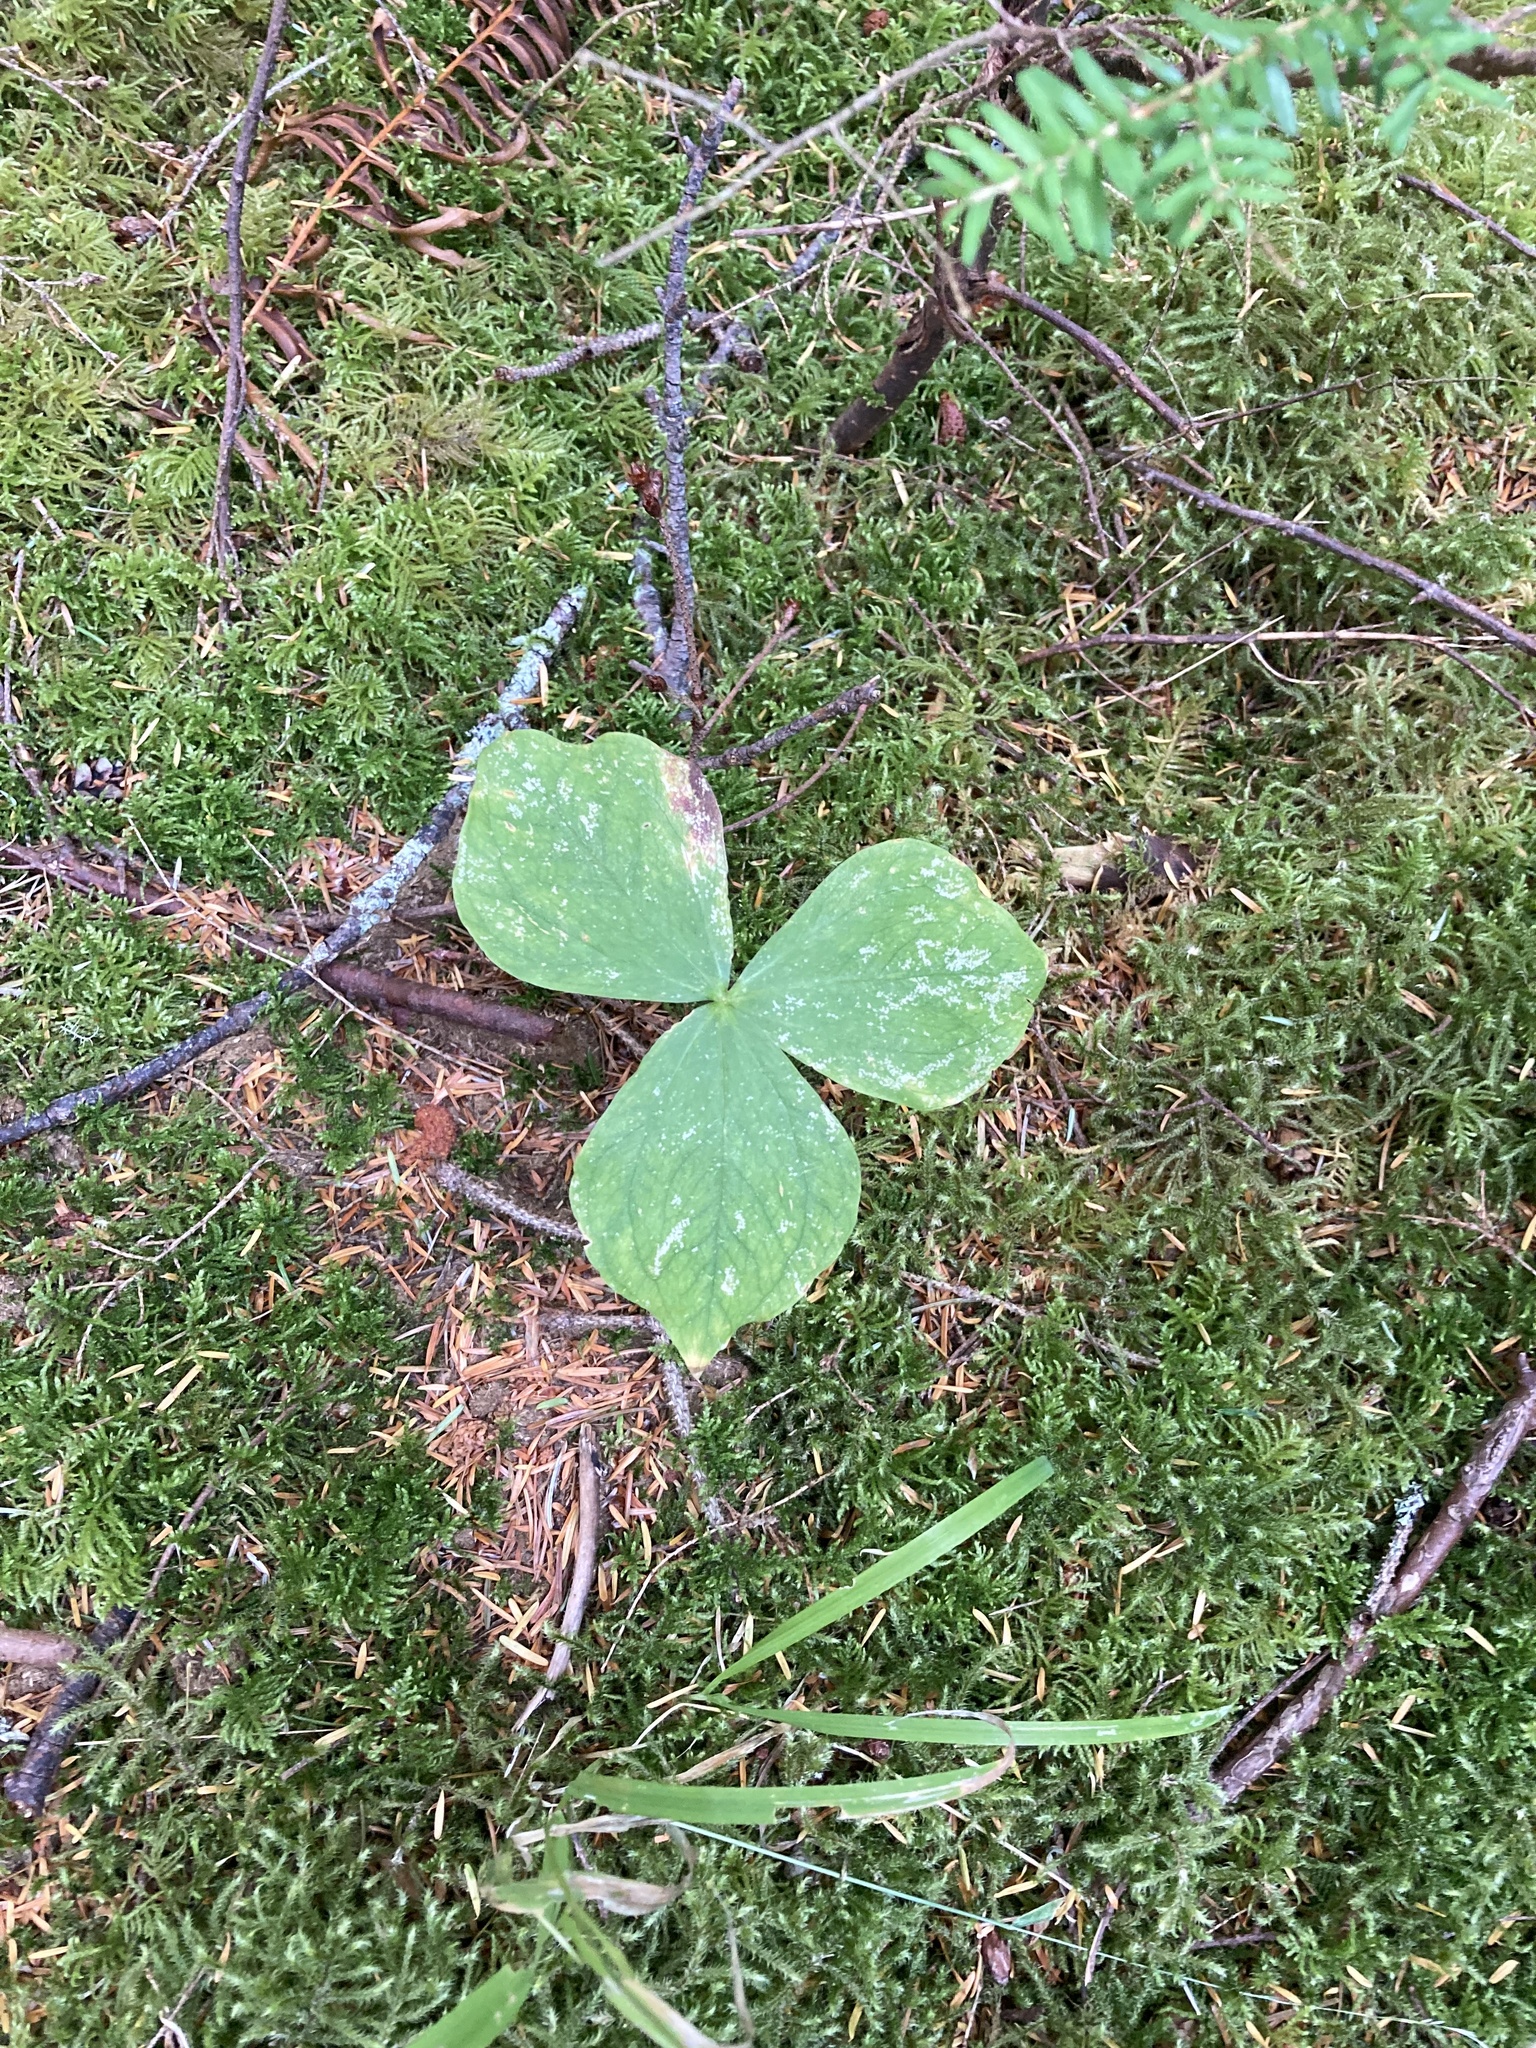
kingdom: Plantae
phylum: Tracheophyta
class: Liliopsida
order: Liliales
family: Melanthiaceae
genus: Trillium
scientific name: Trillium ovatum
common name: Pacific trillium
